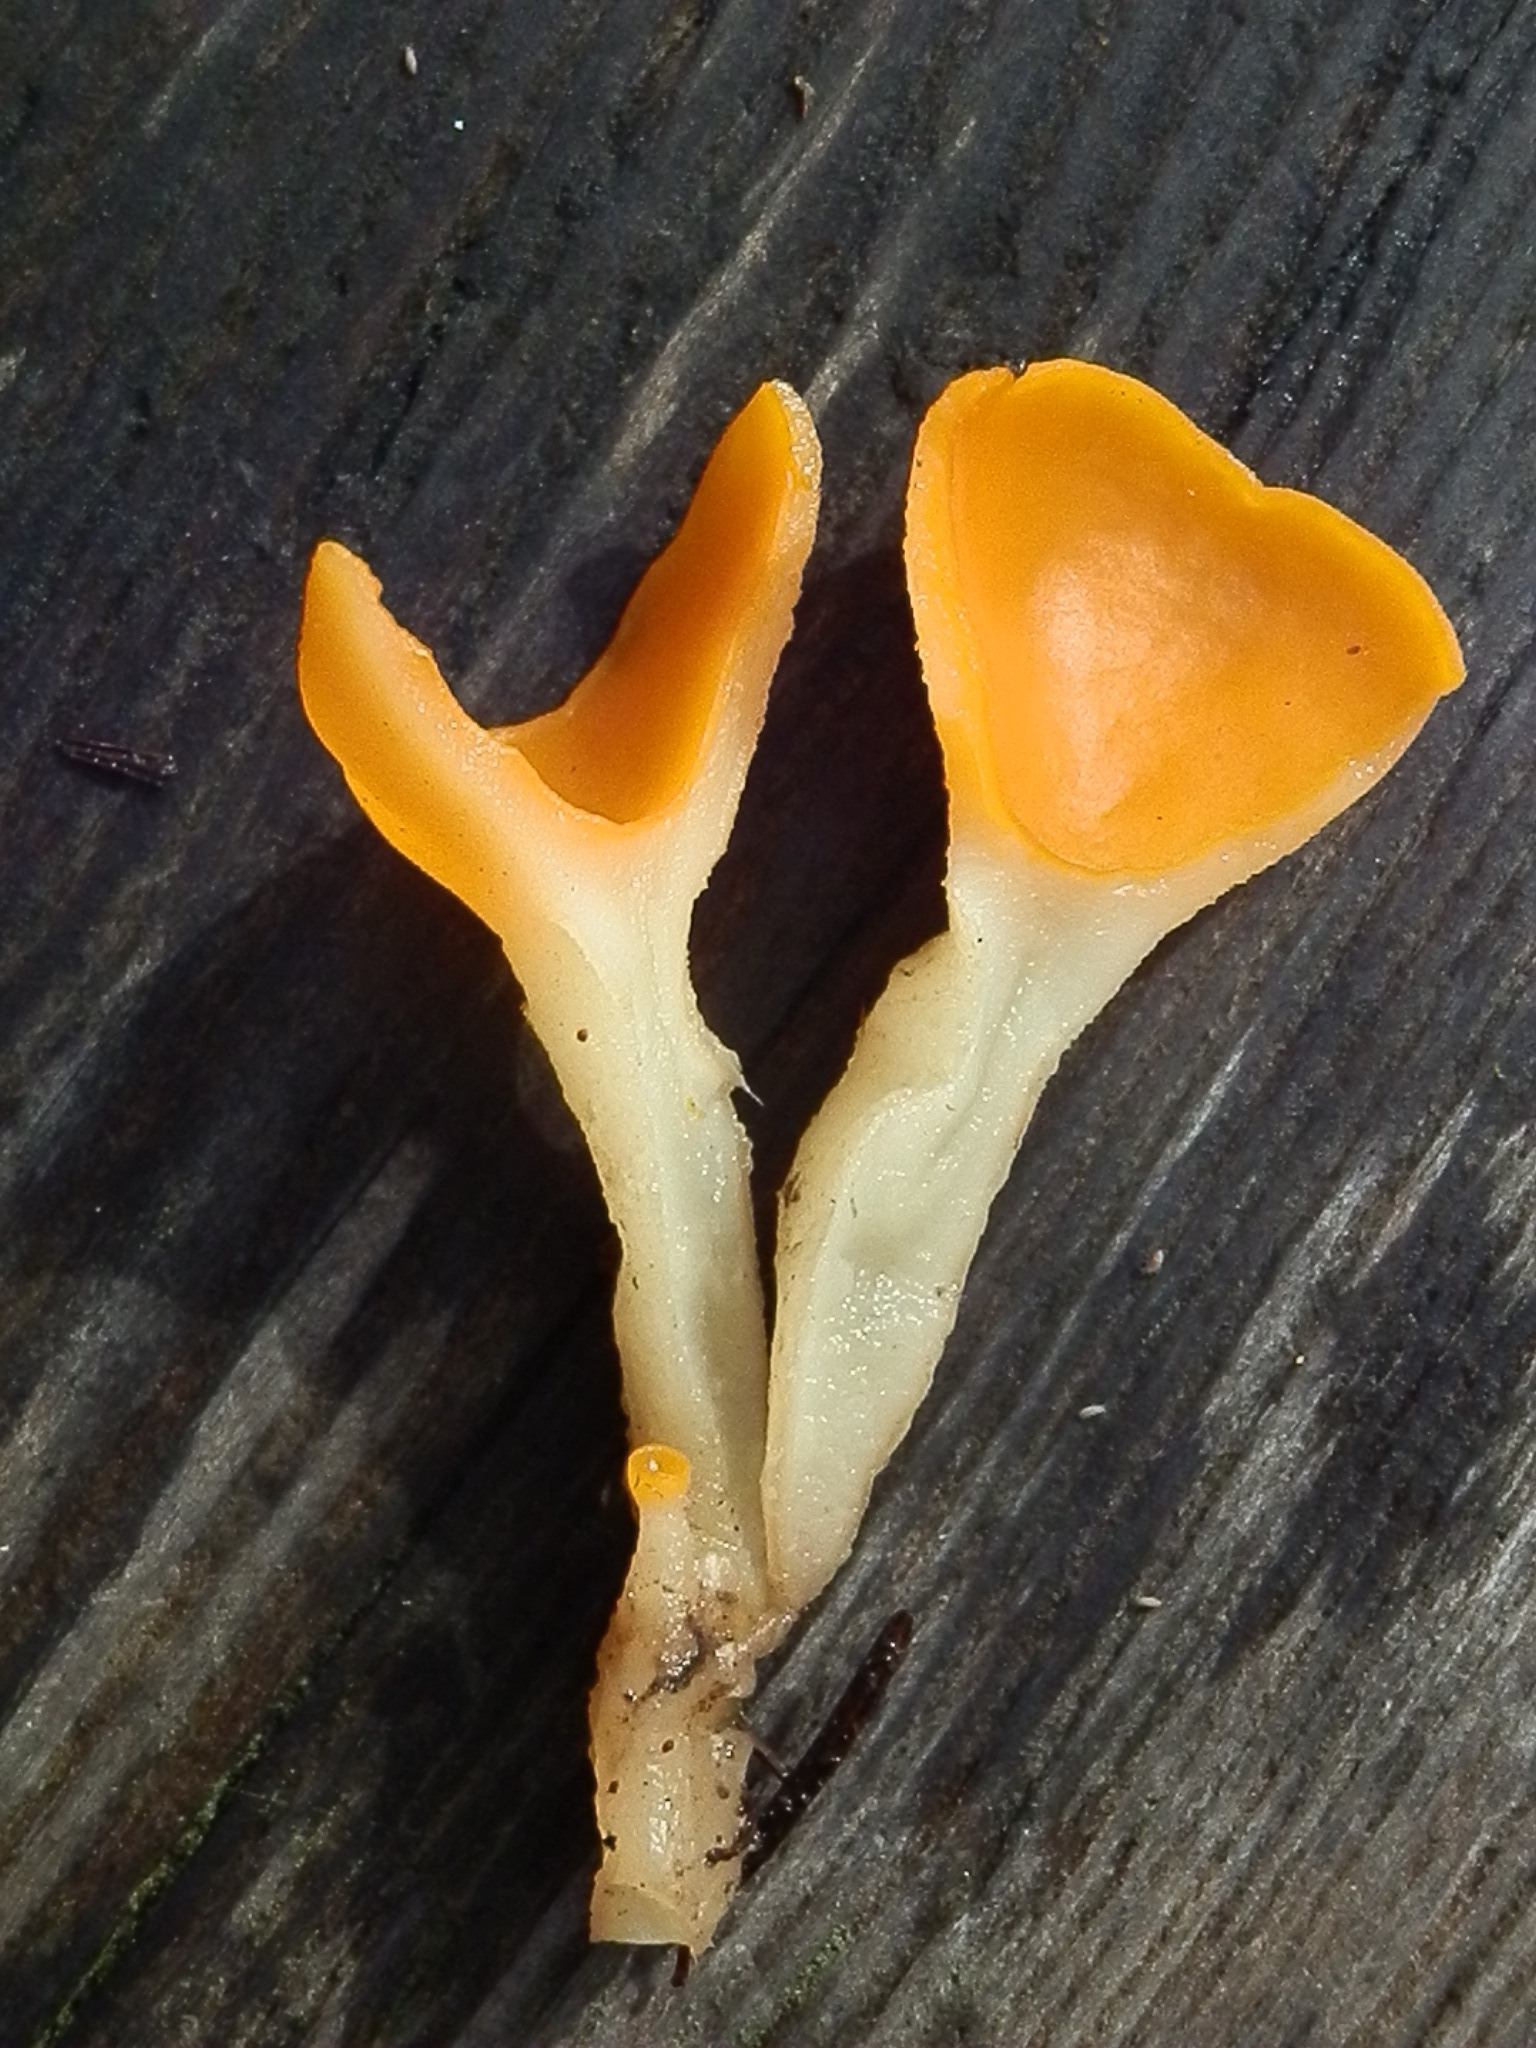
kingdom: Fungi
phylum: Ascomycota
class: Pezizomycetes
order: Pezizales
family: Pyronemataceae
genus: Sowerbyella
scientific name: Sowerbyella rhenana
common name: Stalked orange peel fungus
